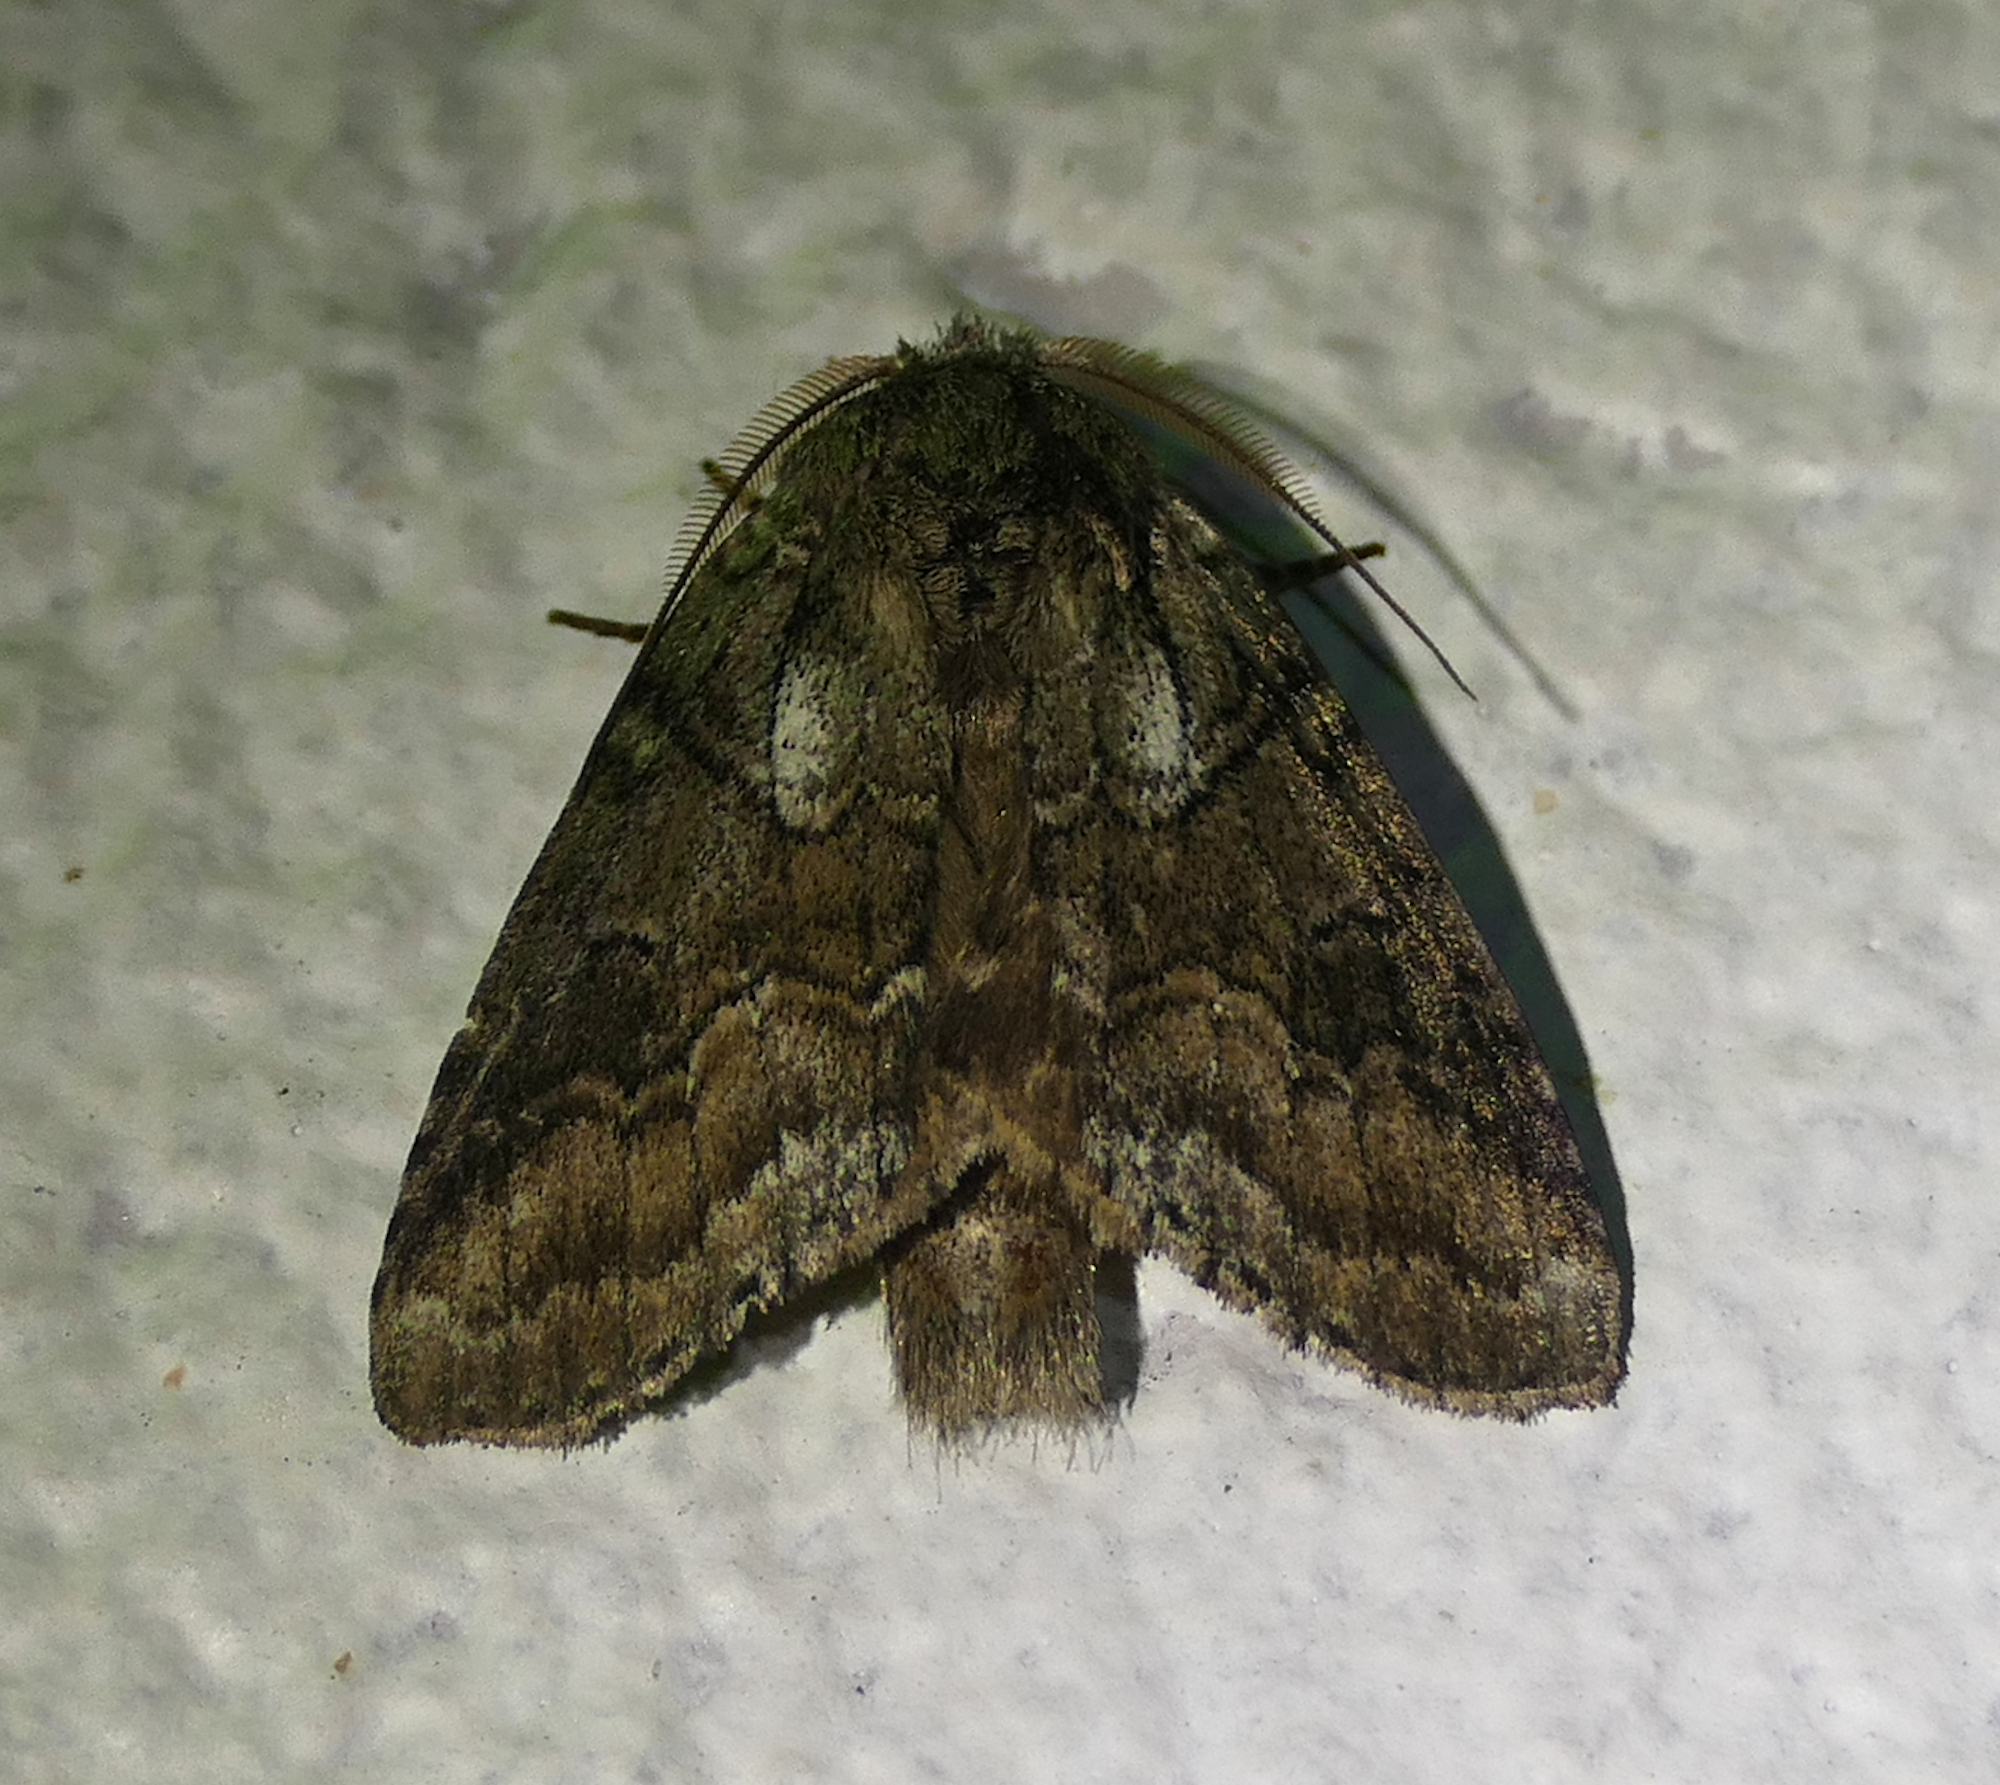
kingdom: Animalia
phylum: Arthropoda
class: Insecta
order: Lepidoptera
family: Notodontidae
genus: Lochmaeus
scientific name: Lochmaeus bilineata
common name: Double-lined prominent
